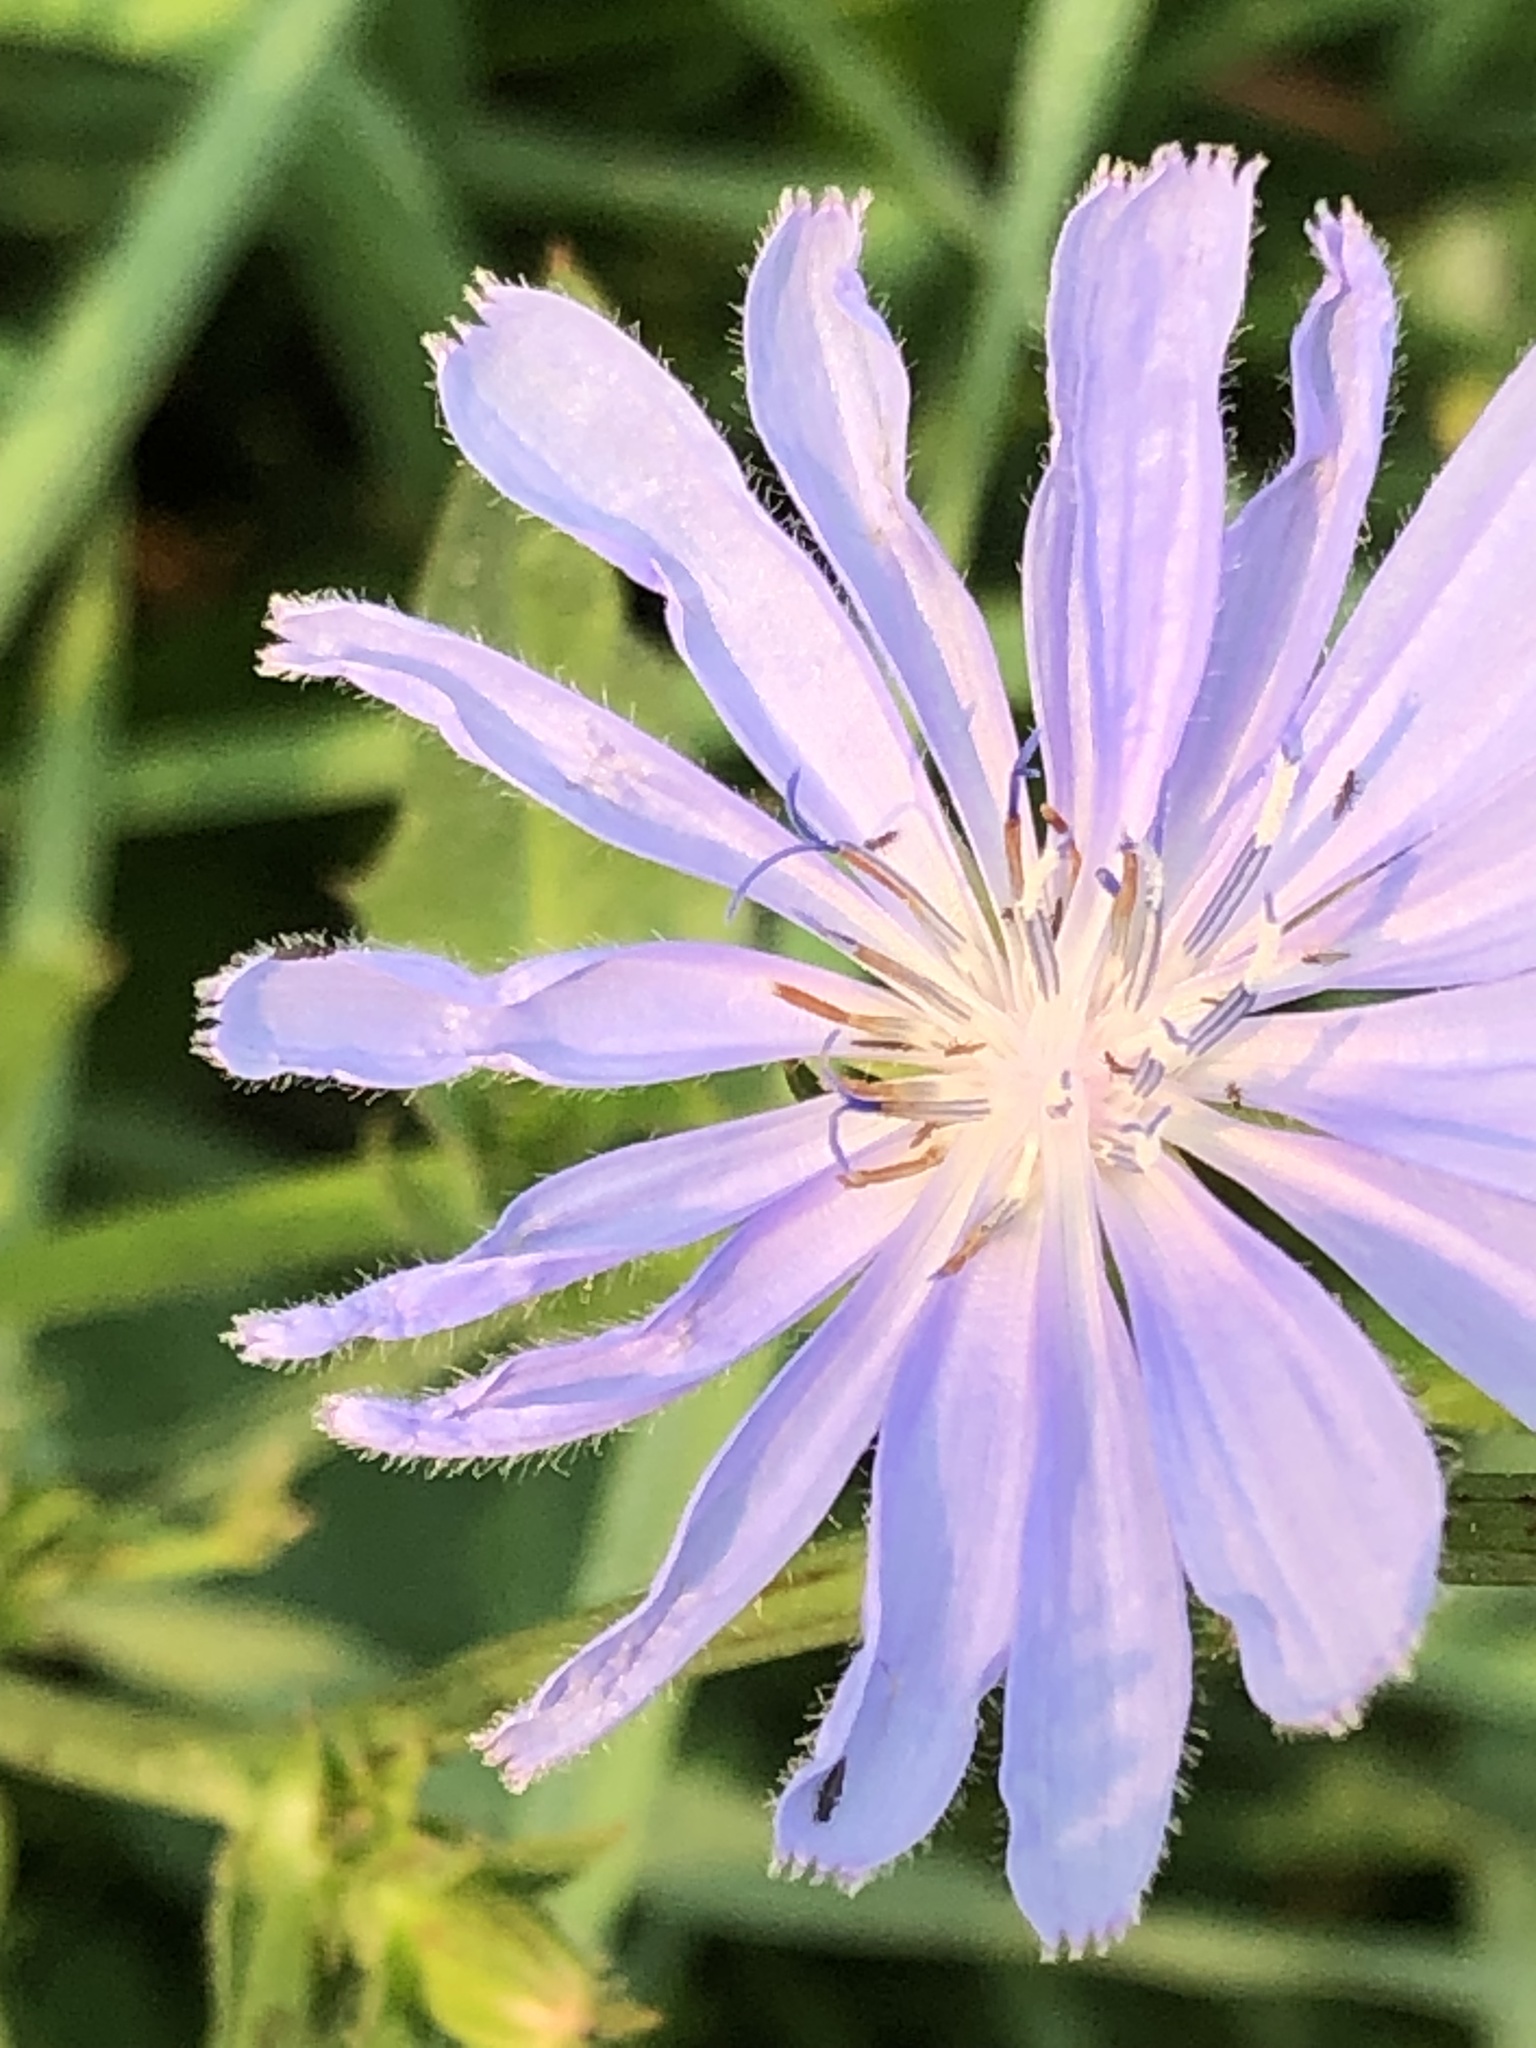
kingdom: Plantae
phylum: Tracheophyta
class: Magnoliopsida
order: Asterales
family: Asteraceae
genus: Cichorium
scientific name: Cichorium intybus
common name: Chicory
